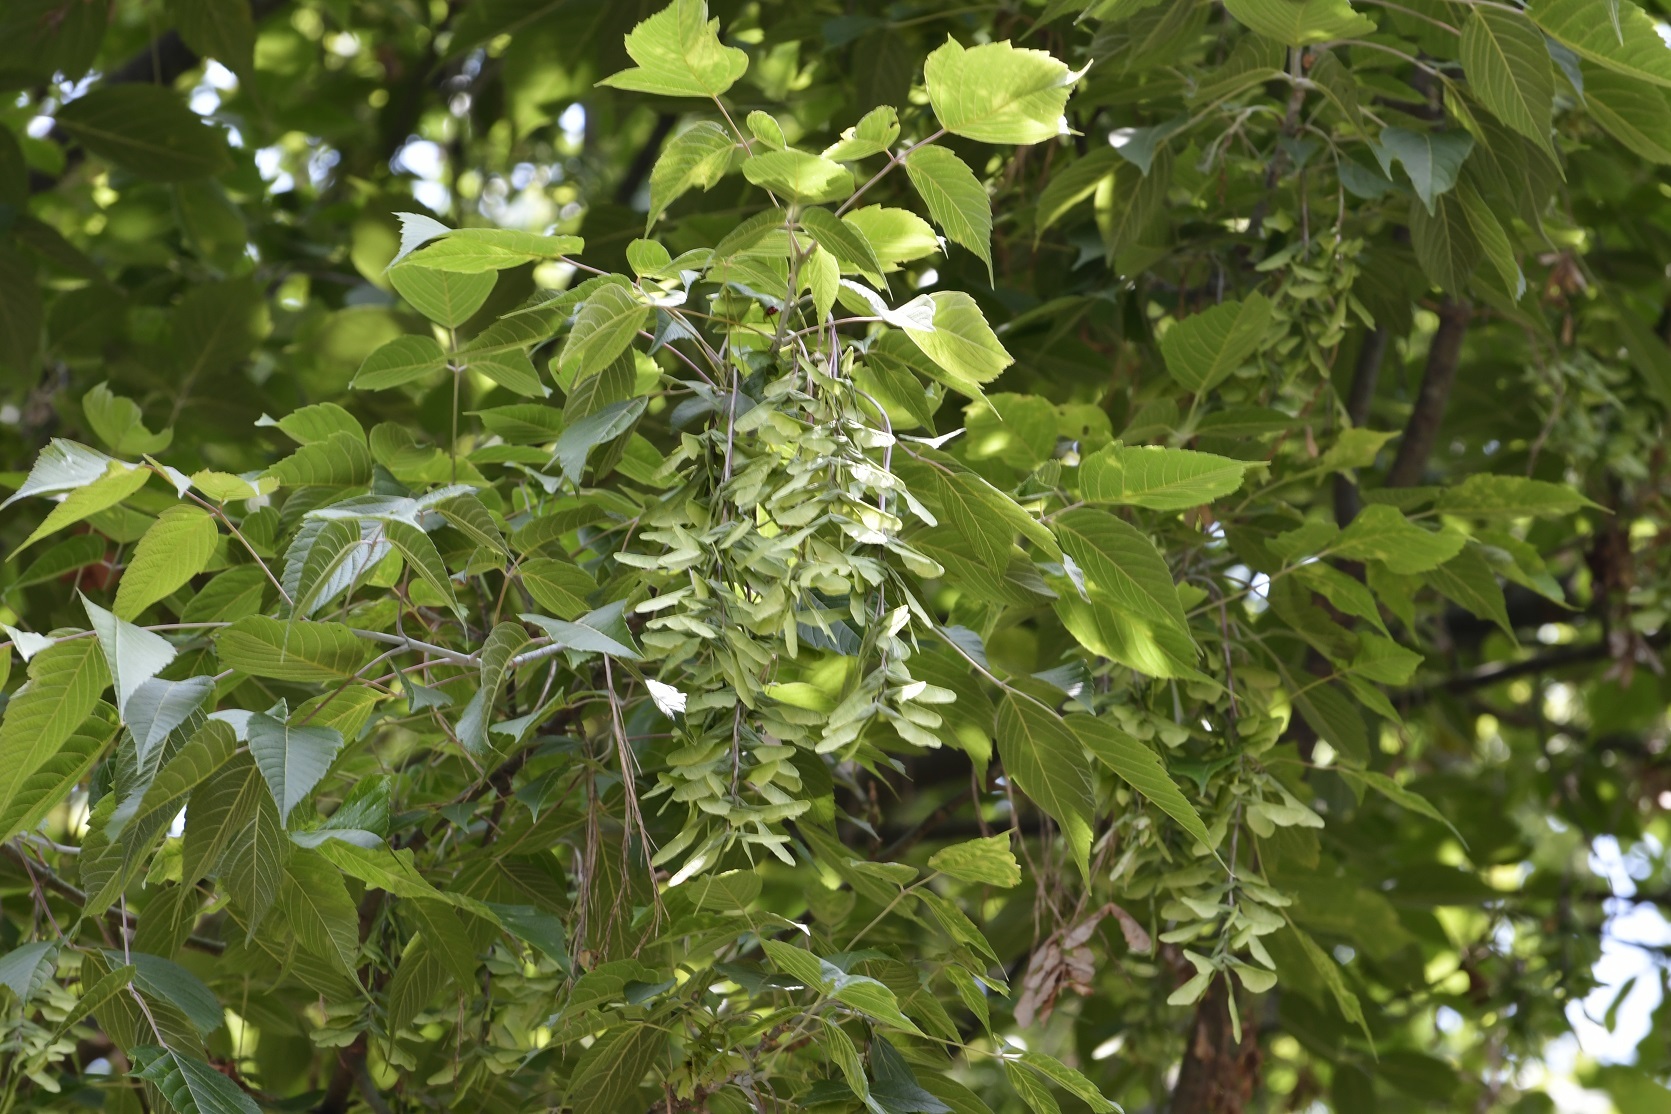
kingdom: Plantae
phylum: Tracheophyta
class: Magnoliopsida
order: Sapindales
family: Sapindaceae
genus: Acer
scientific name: Acer negundo
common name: Ashleaf maple
